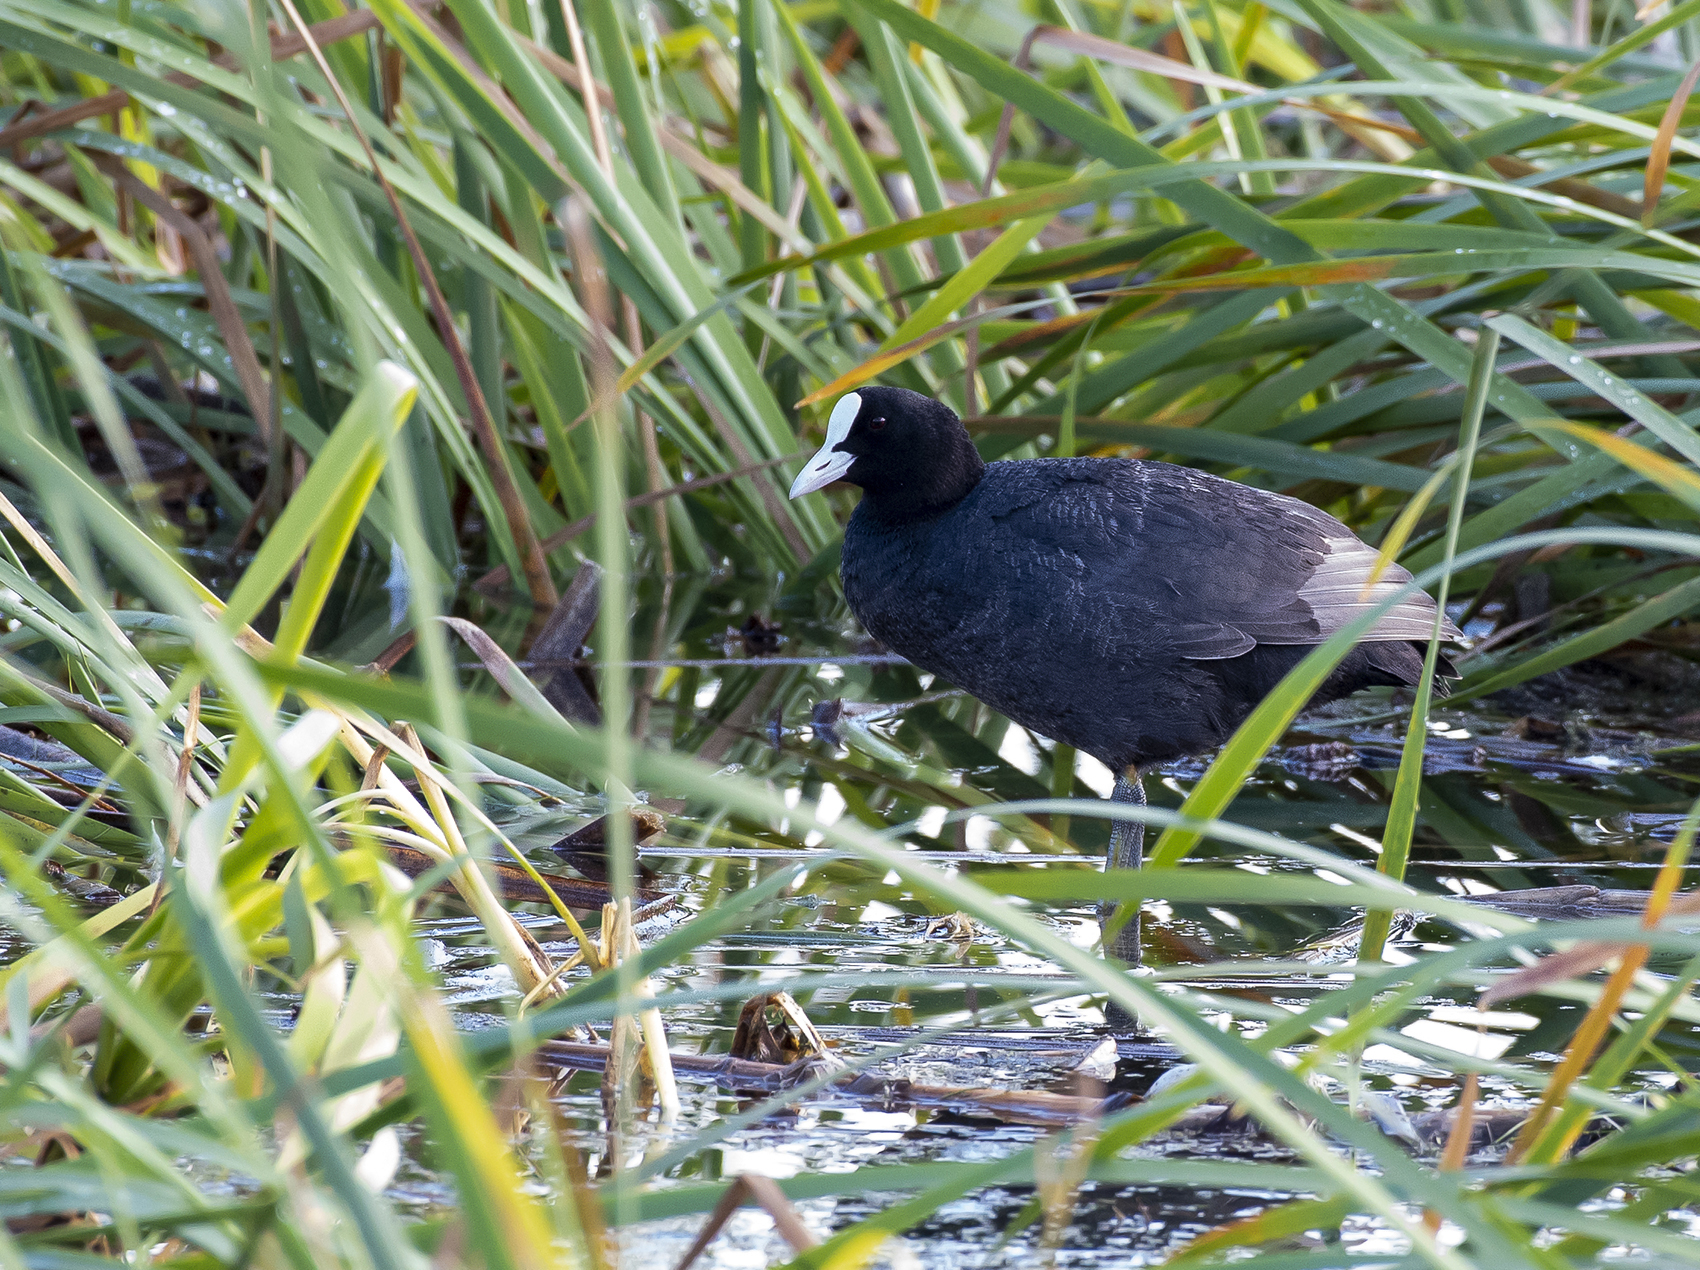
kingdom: Animalia
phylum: Chordata
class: Aves
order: Gruiformes
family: Rallidae
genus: Fulica
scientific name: Fulica atra
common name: Eurasian coot
